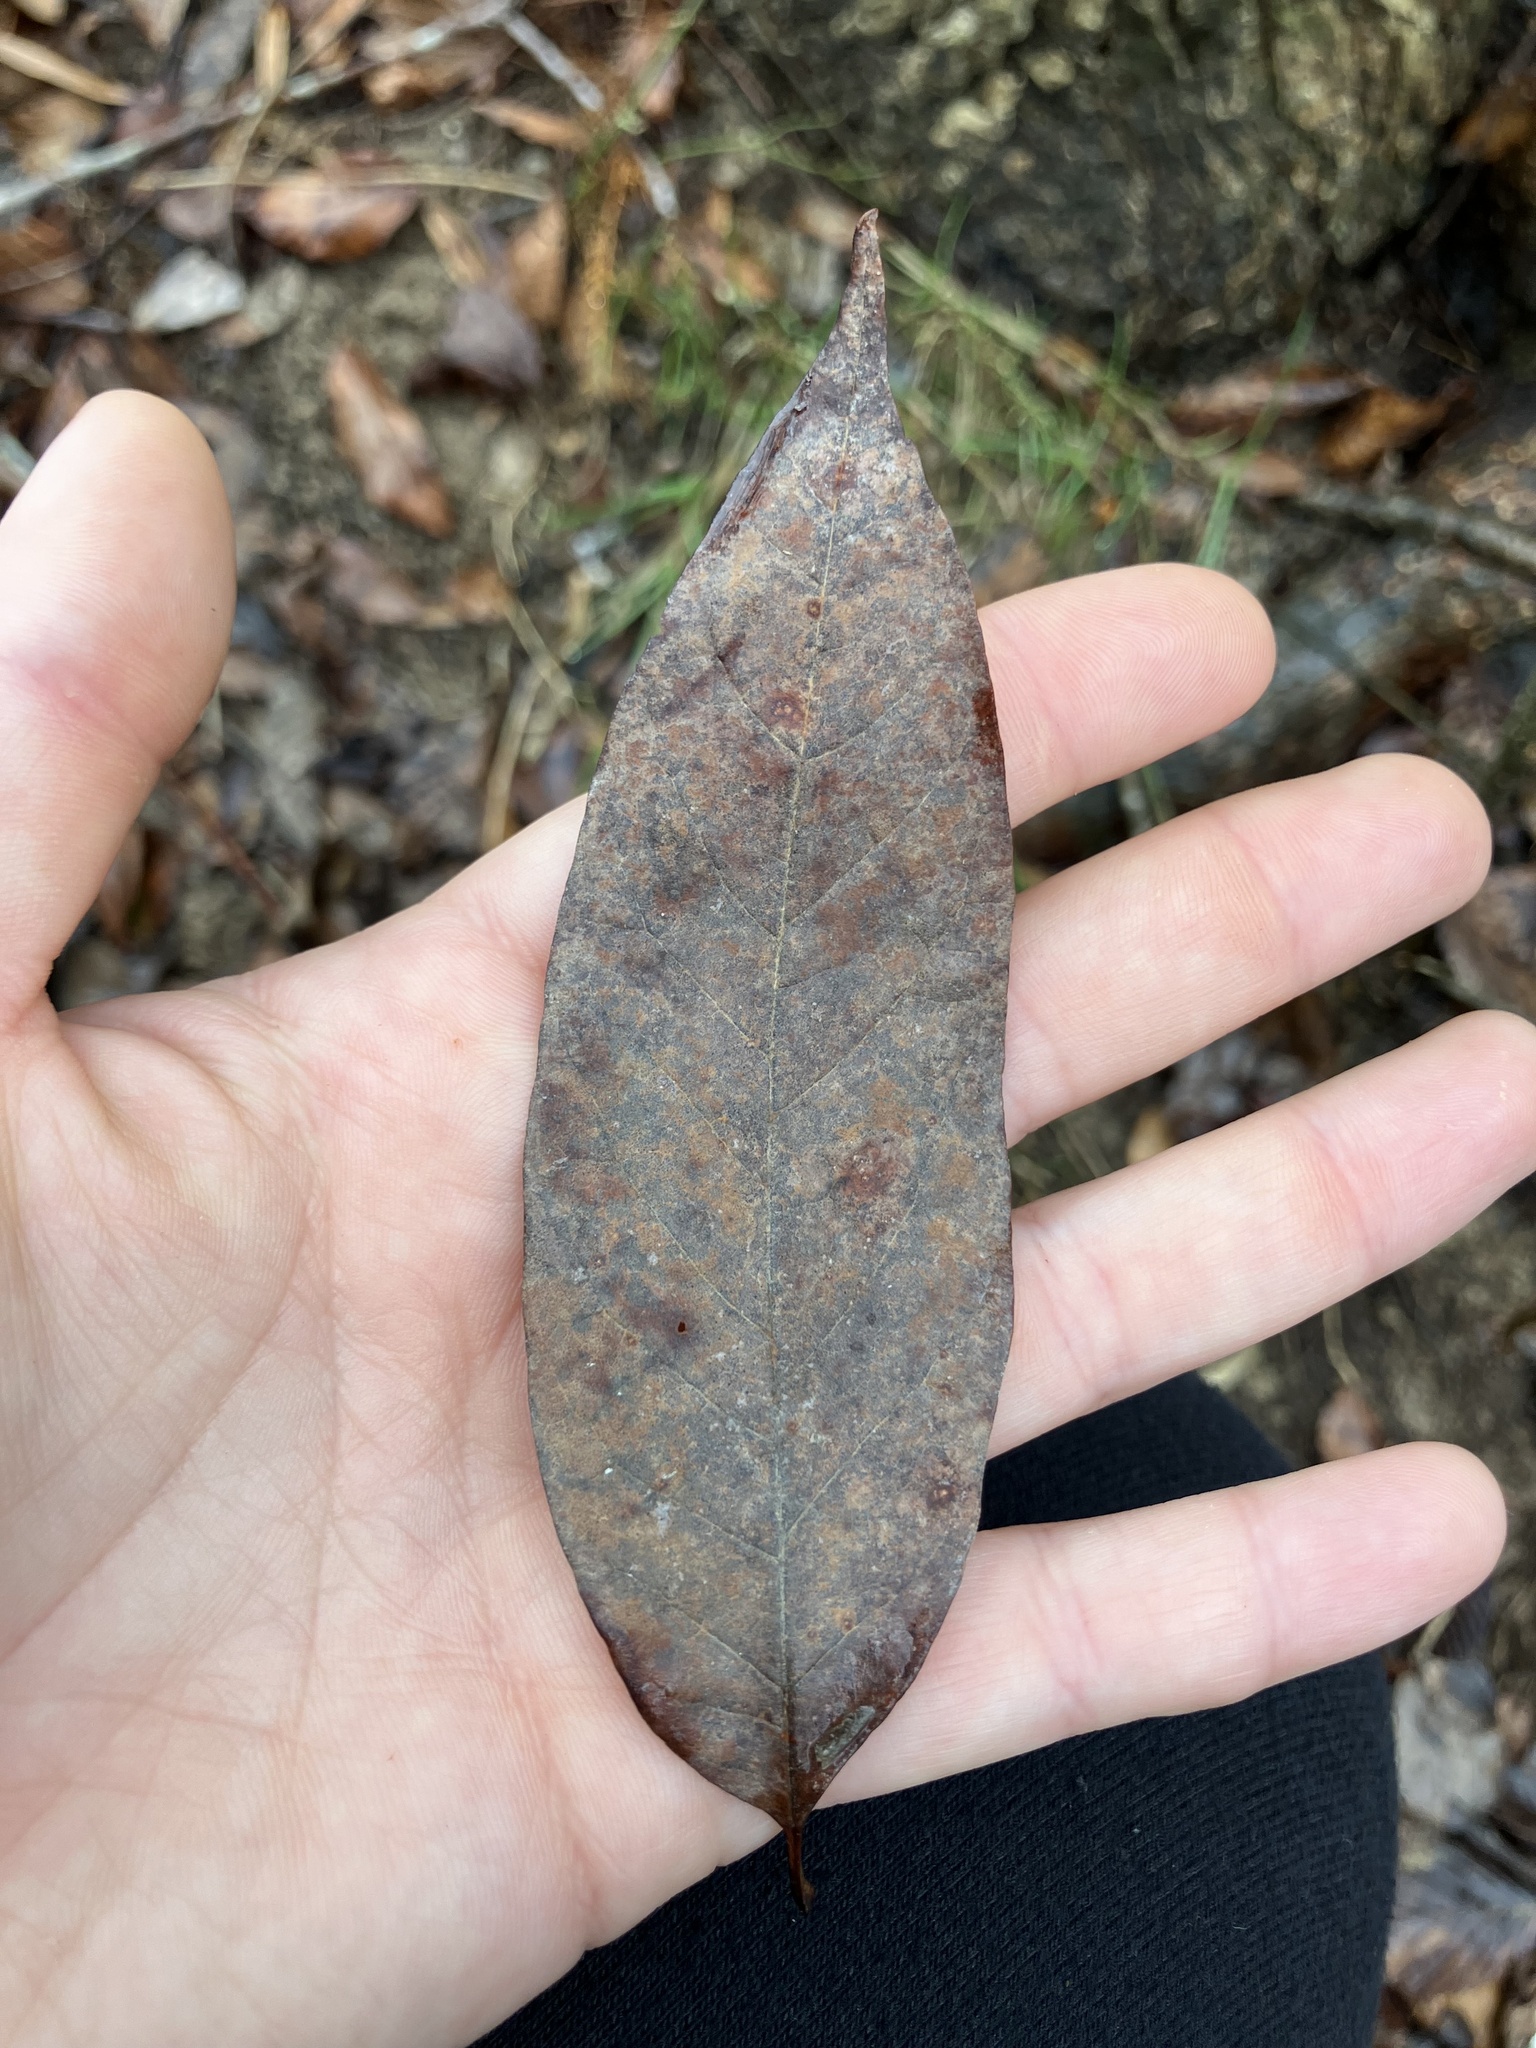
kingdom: Plantae
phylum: Tracheophyta
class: Magnoliopsida
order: Cornales
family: Nyssaceae
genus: Nyssa
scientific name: Nyssa sylvatica
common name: Black tupelo
